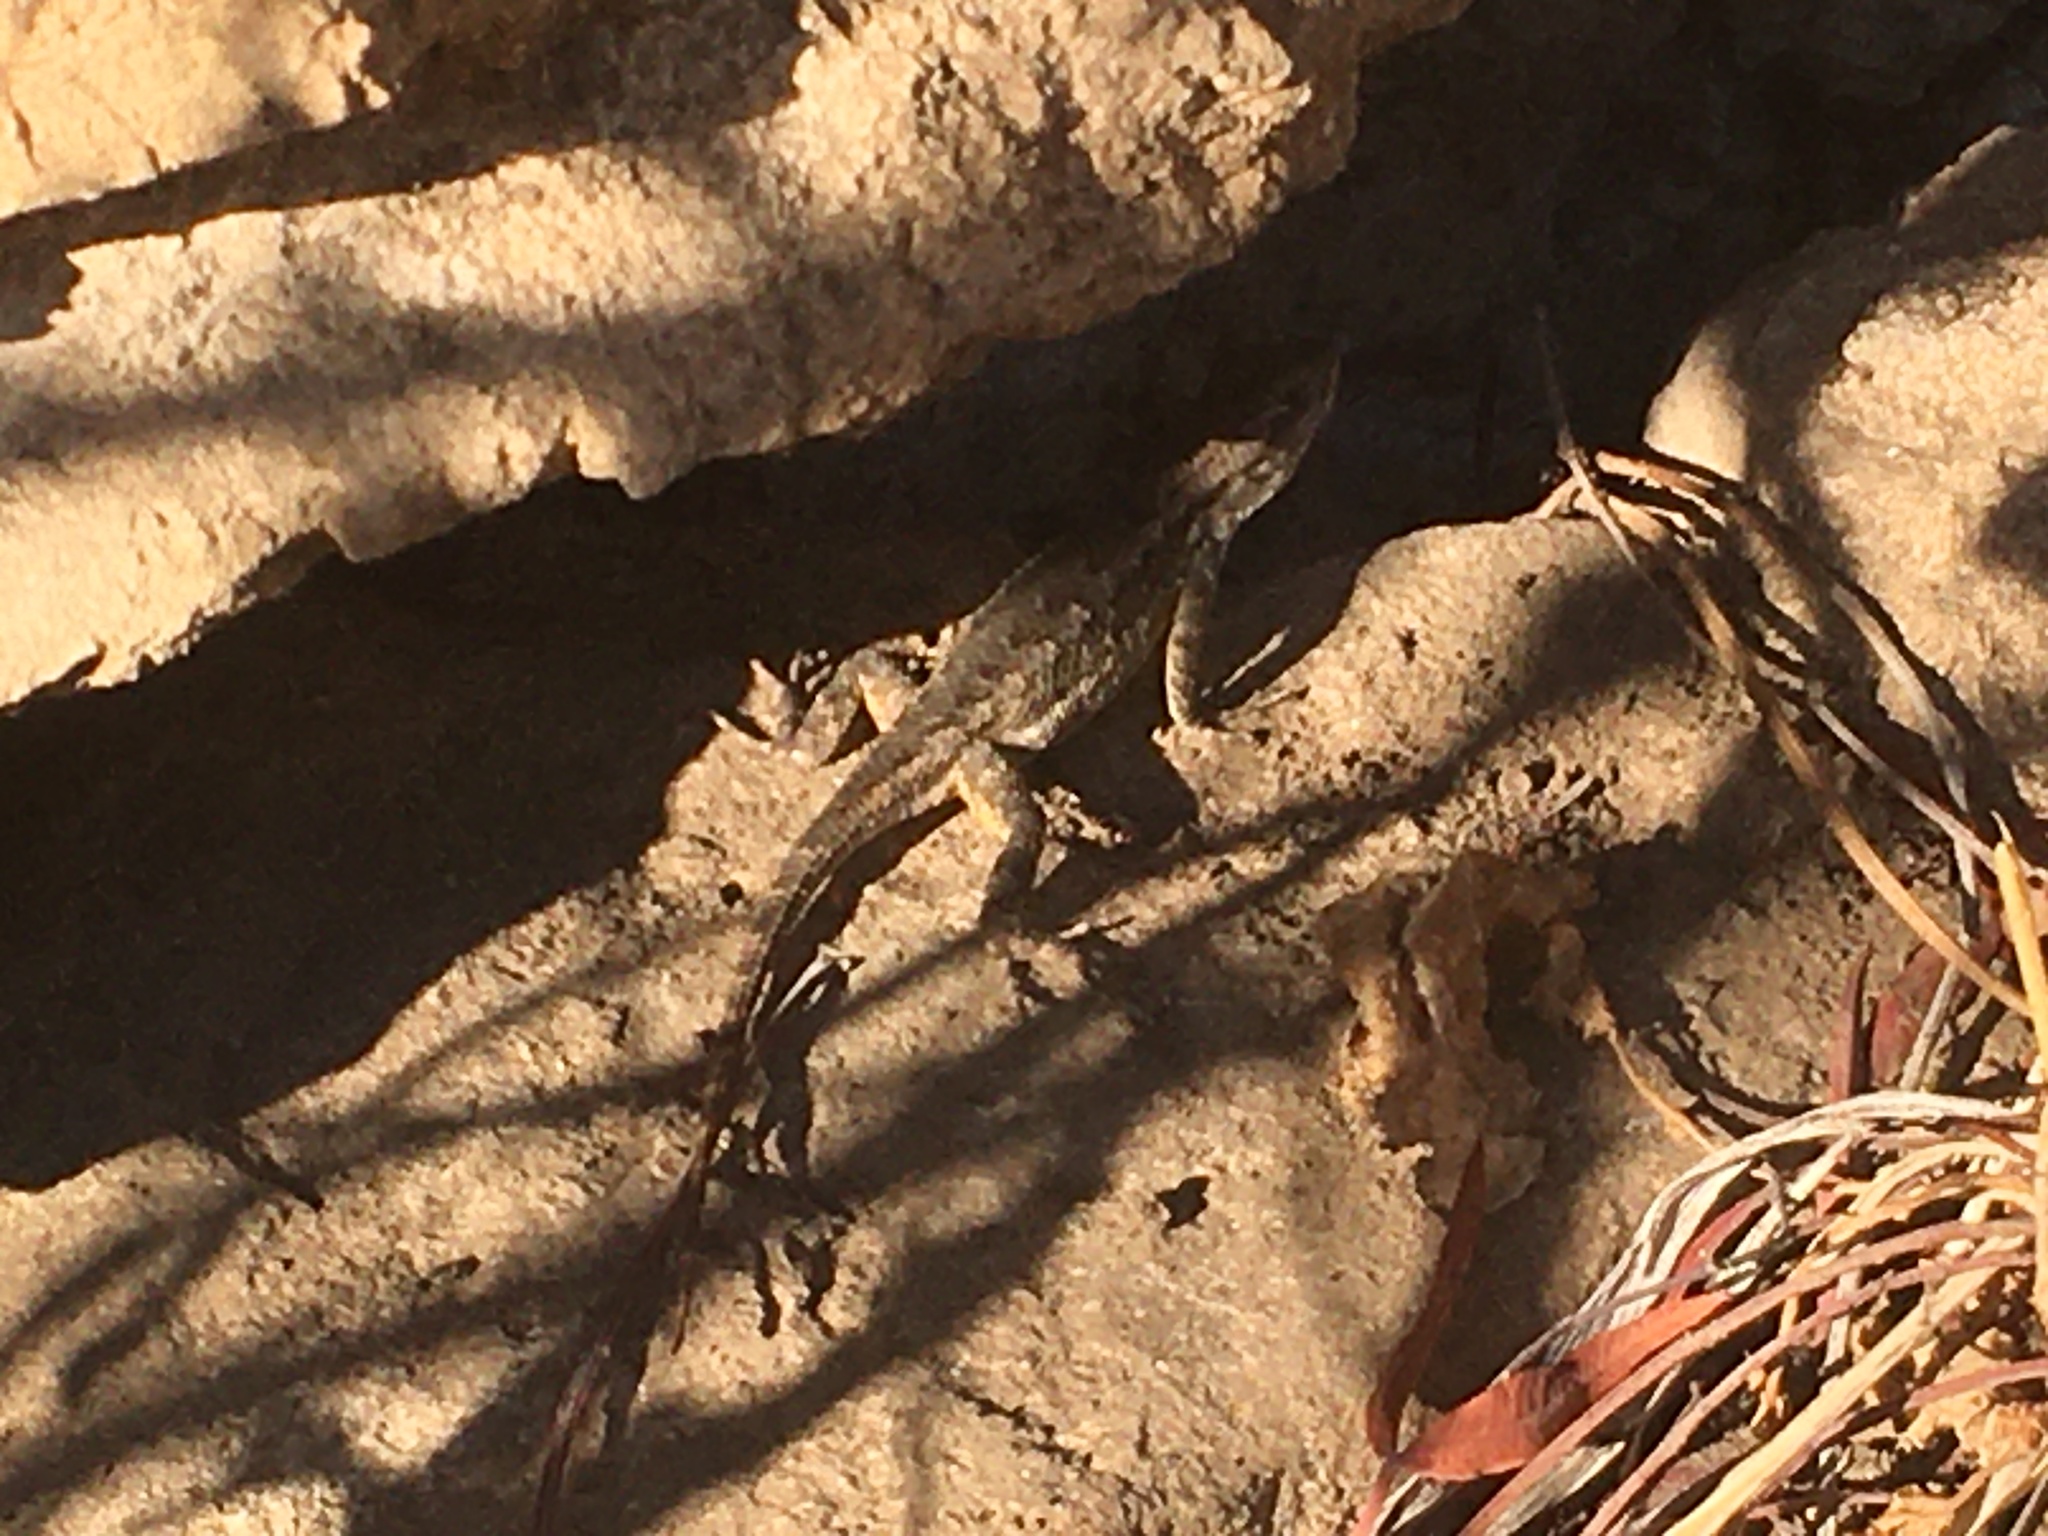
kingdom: Animalia
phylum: Chordata
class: Squamata
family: Phrynosomatidae
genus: Sceloporus
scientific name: Sceloporus occidentalis
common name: Western fence lizard
